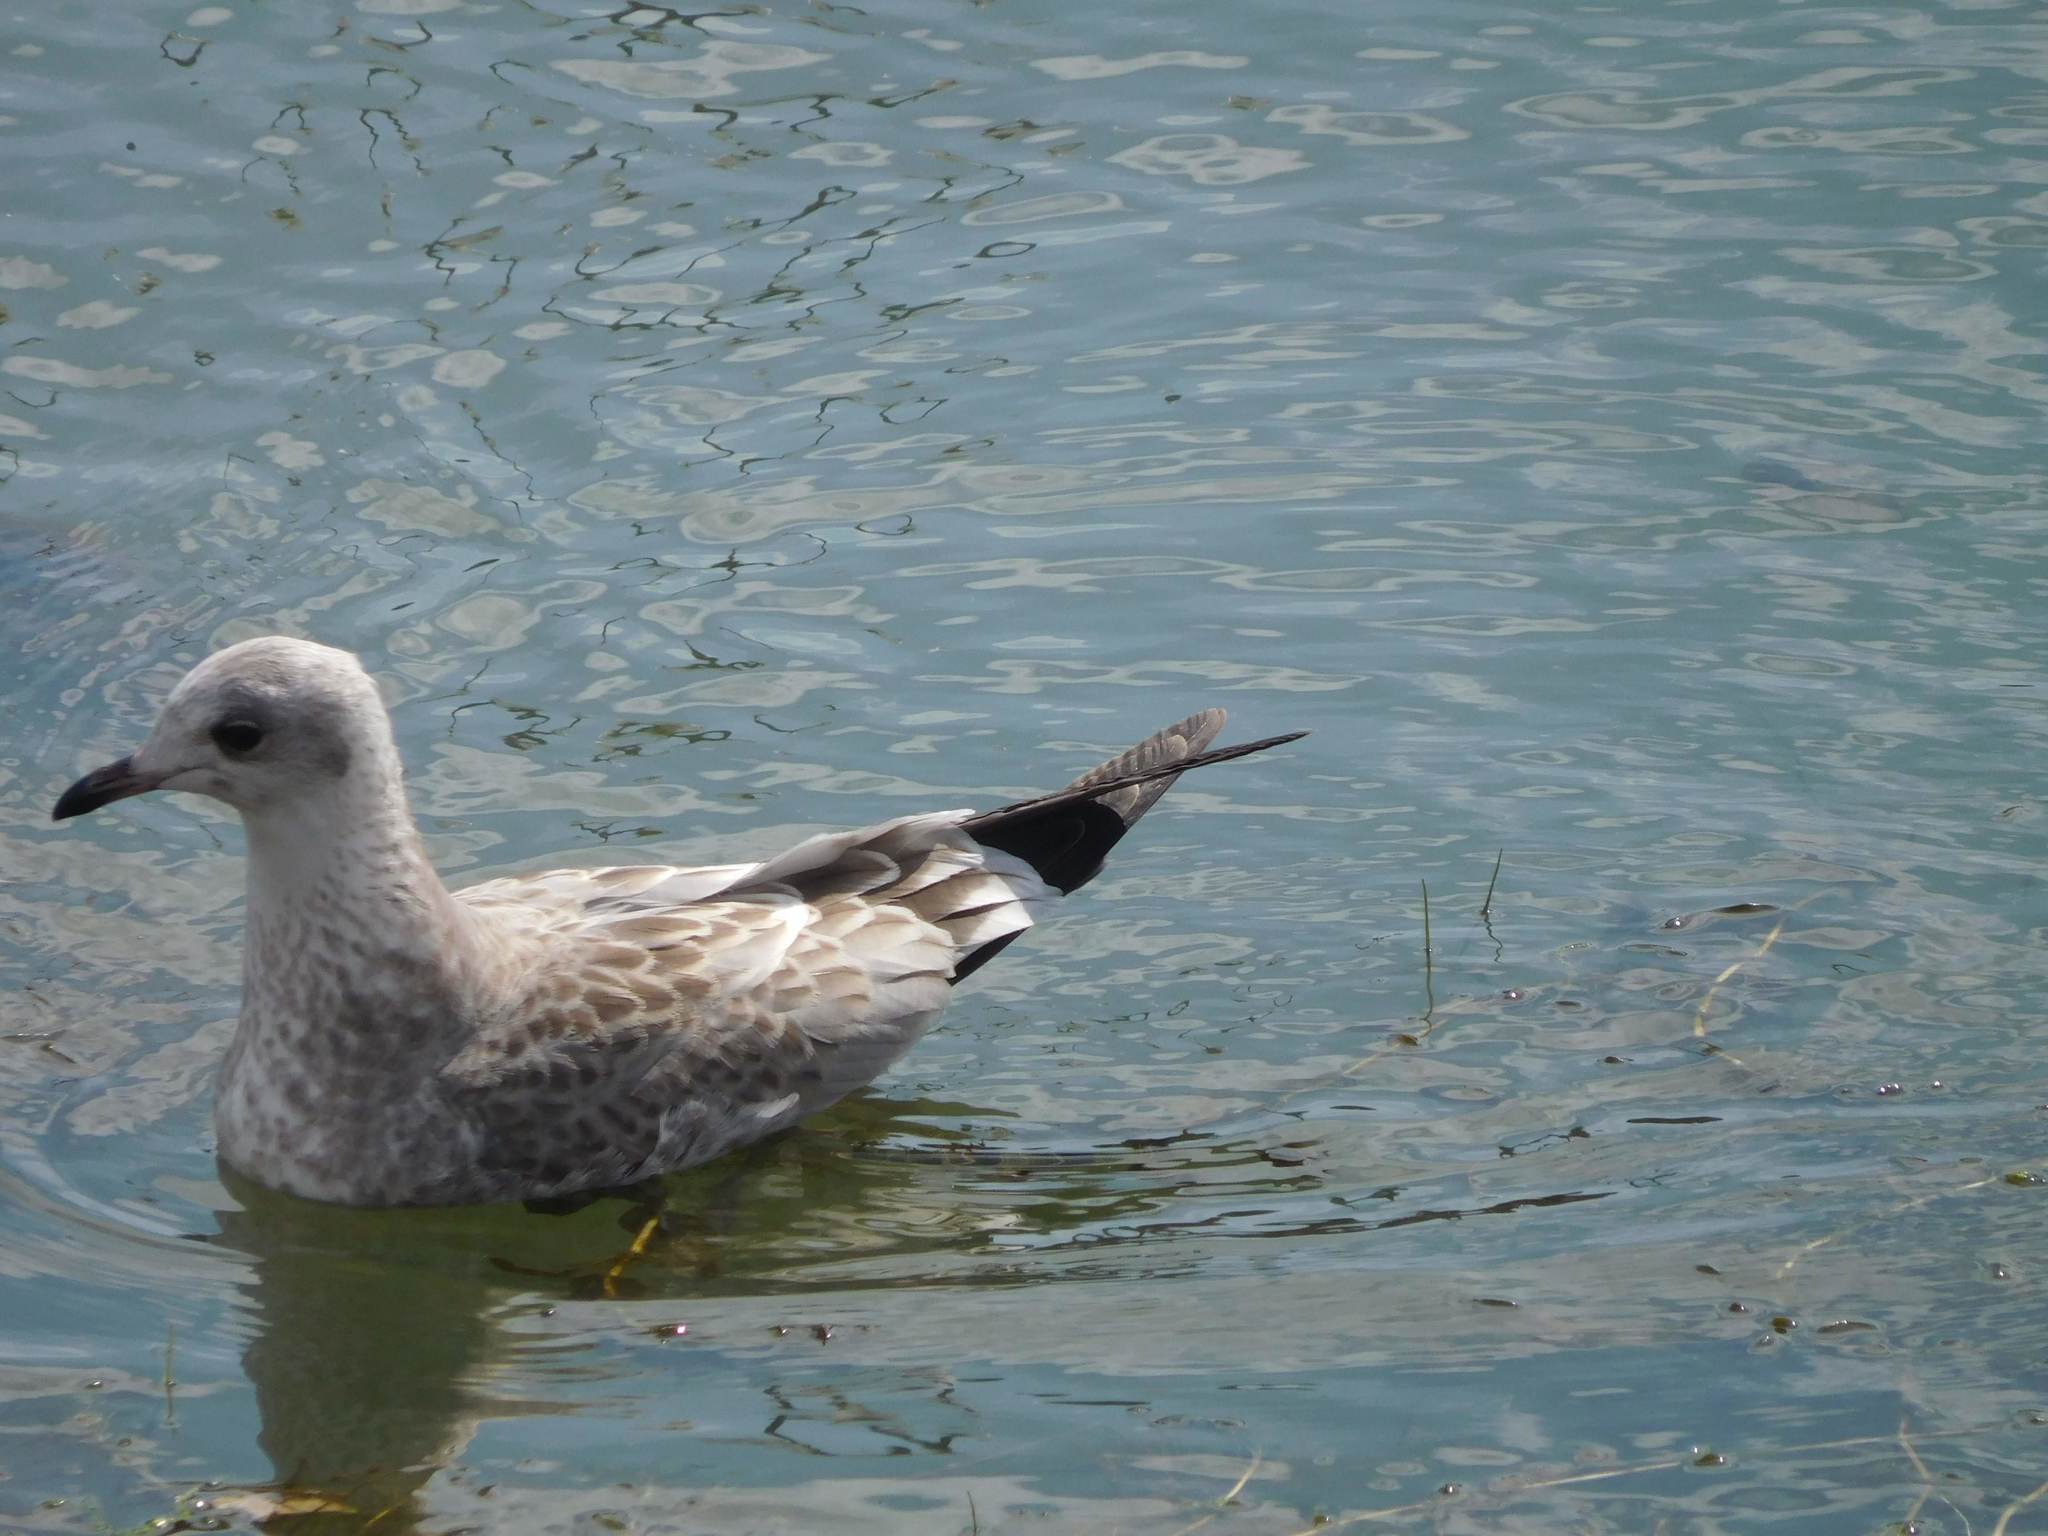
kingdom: Animalia
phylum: Chordata
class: Aves
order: Charadriiformes
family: Laridae
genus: Larus
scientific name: Larus canus
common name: Mew gull
